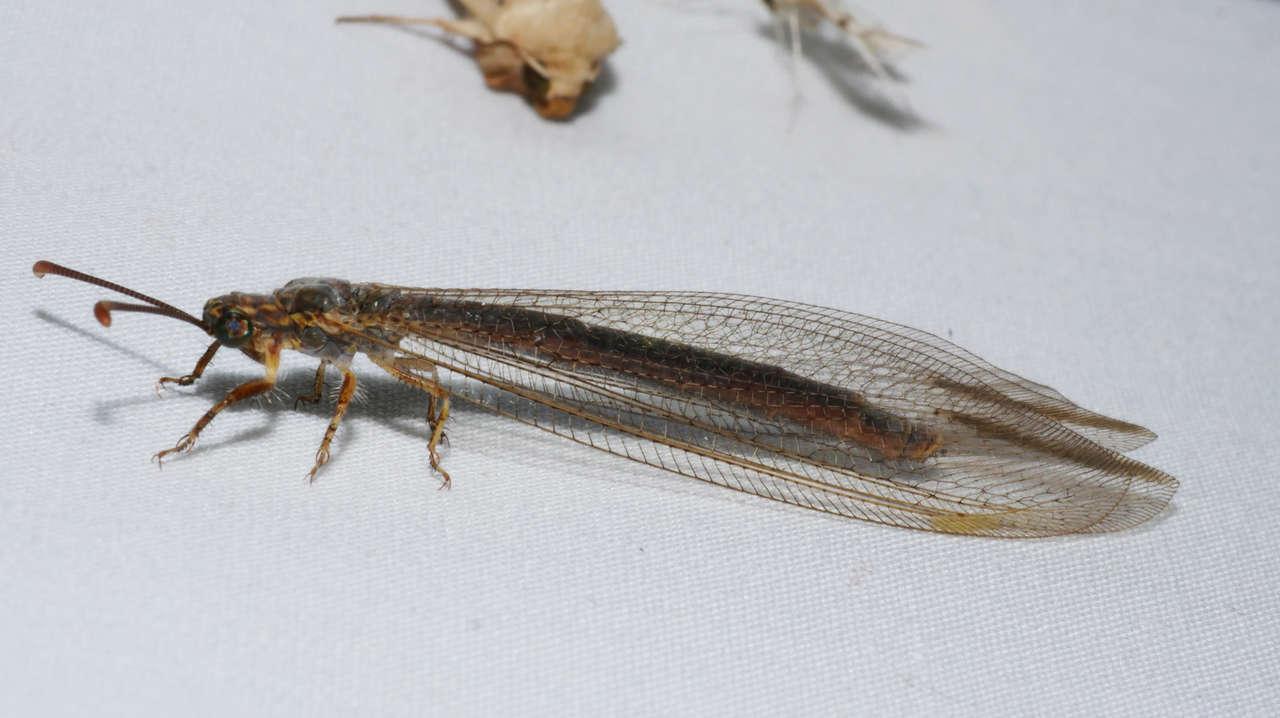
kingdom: Animalia
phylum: Arthropoda
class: Insecta
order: Neuroptera
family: Myrmeleontidae
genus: Distoleon
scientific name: Distoleon bistrigatus
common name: Lacewing
